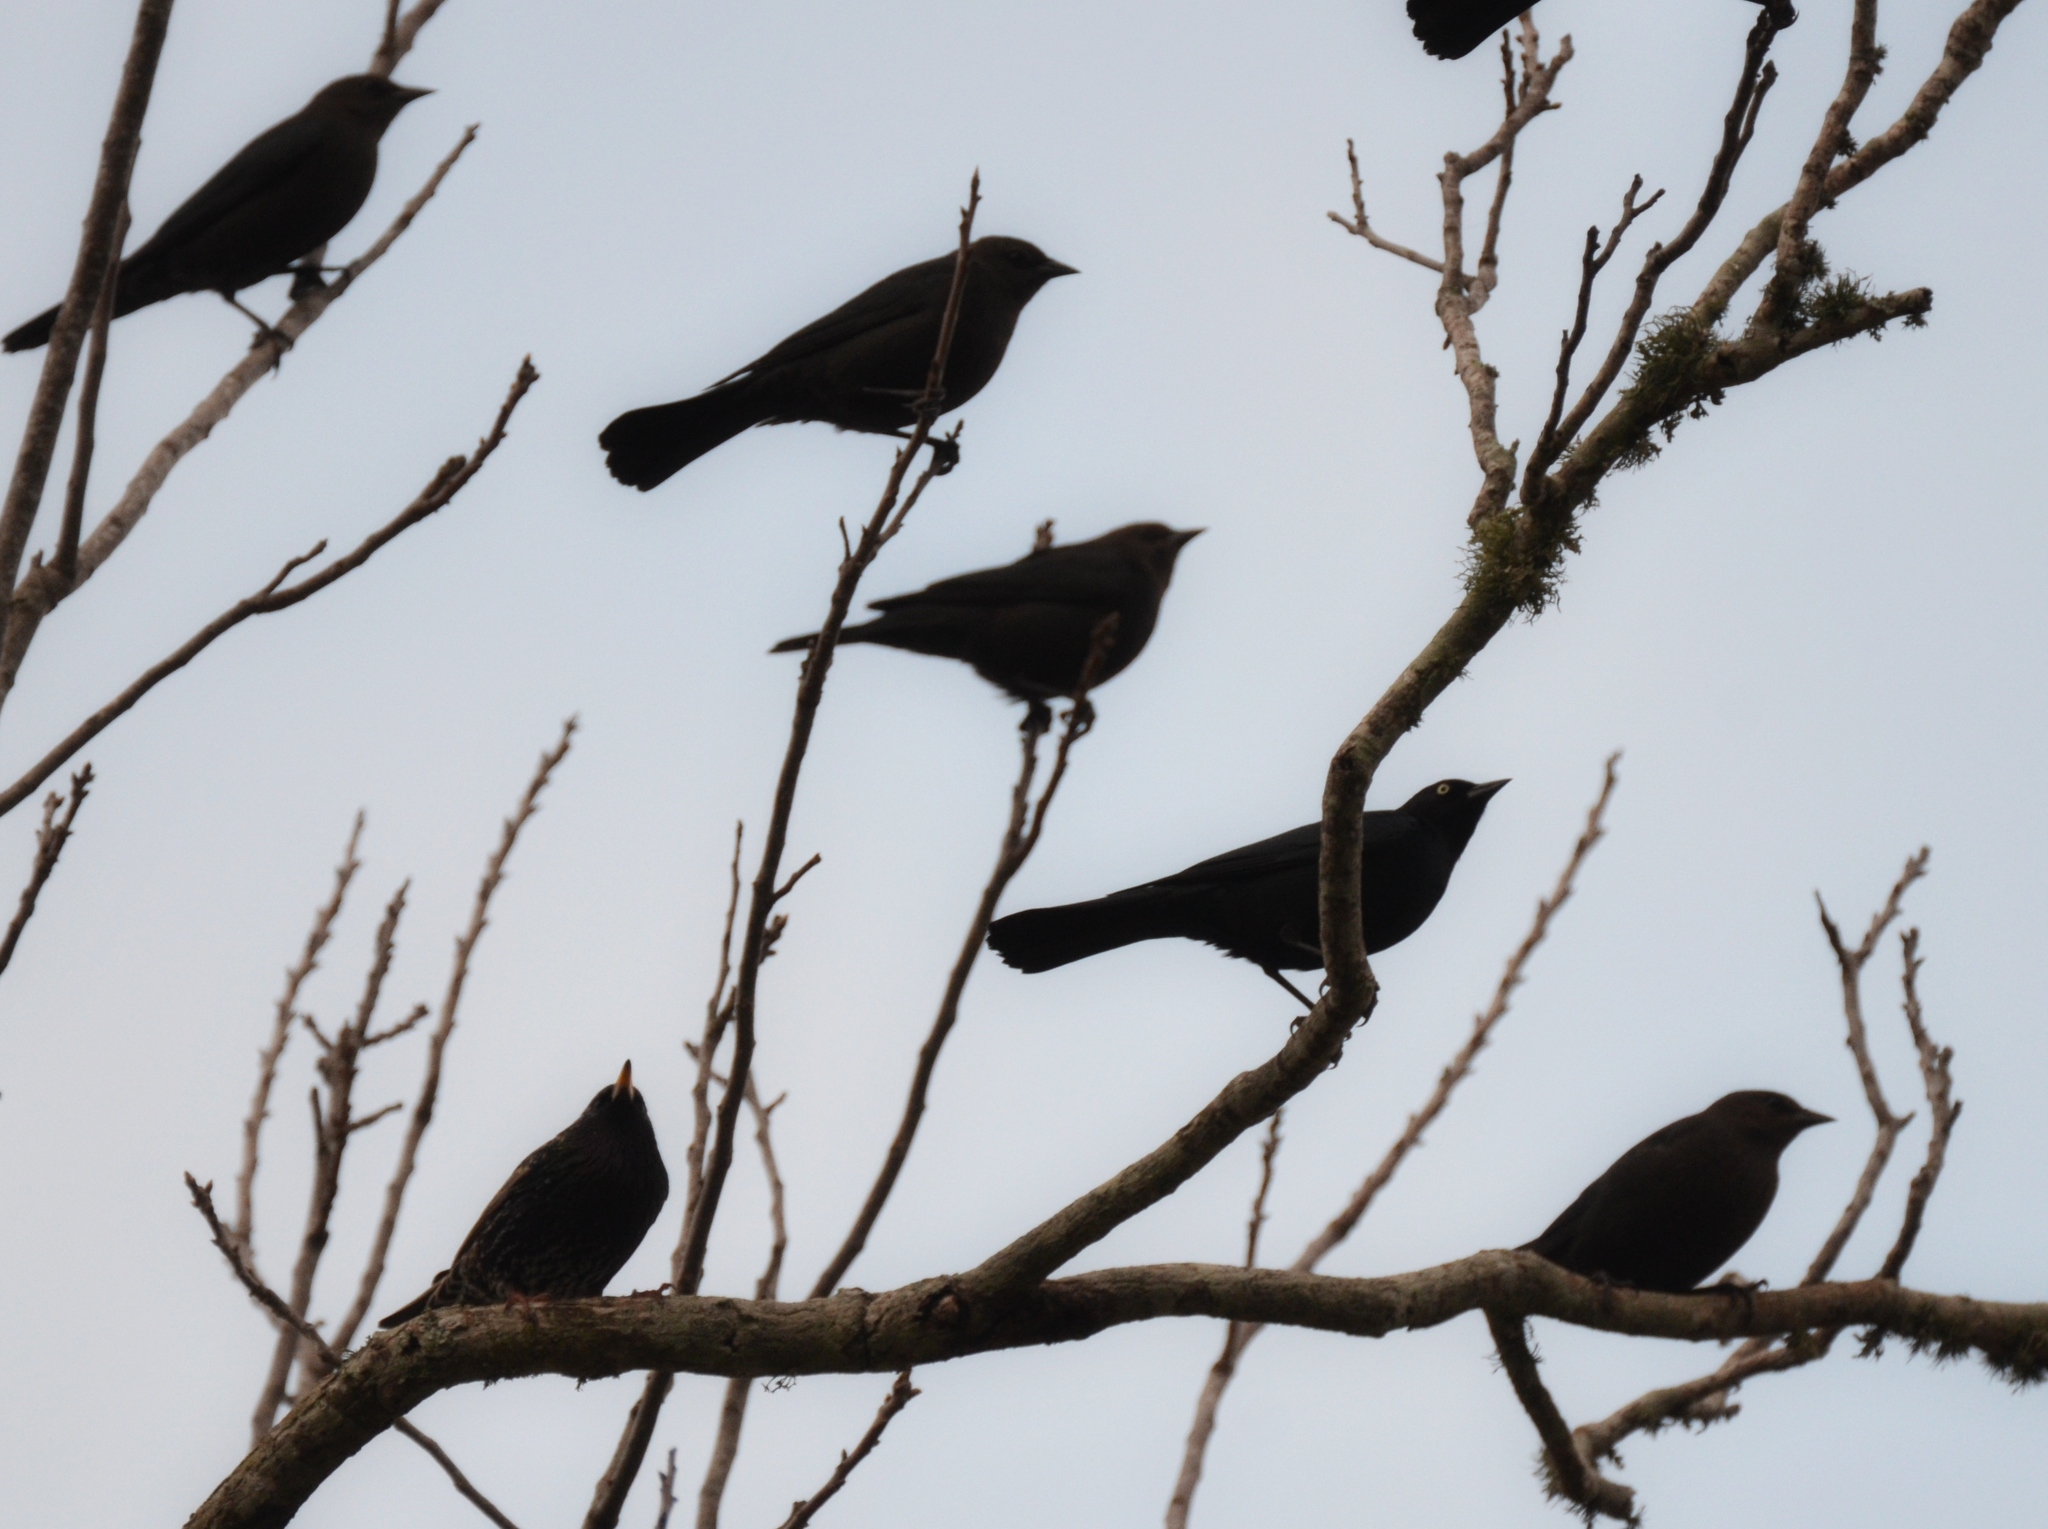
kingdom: Animalia
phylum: Chordata
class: Aves
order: Passeriformes
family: Icteridae
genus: Euphagus
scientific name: Euphagus cyanocephalus
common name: Brewer's blackbird
